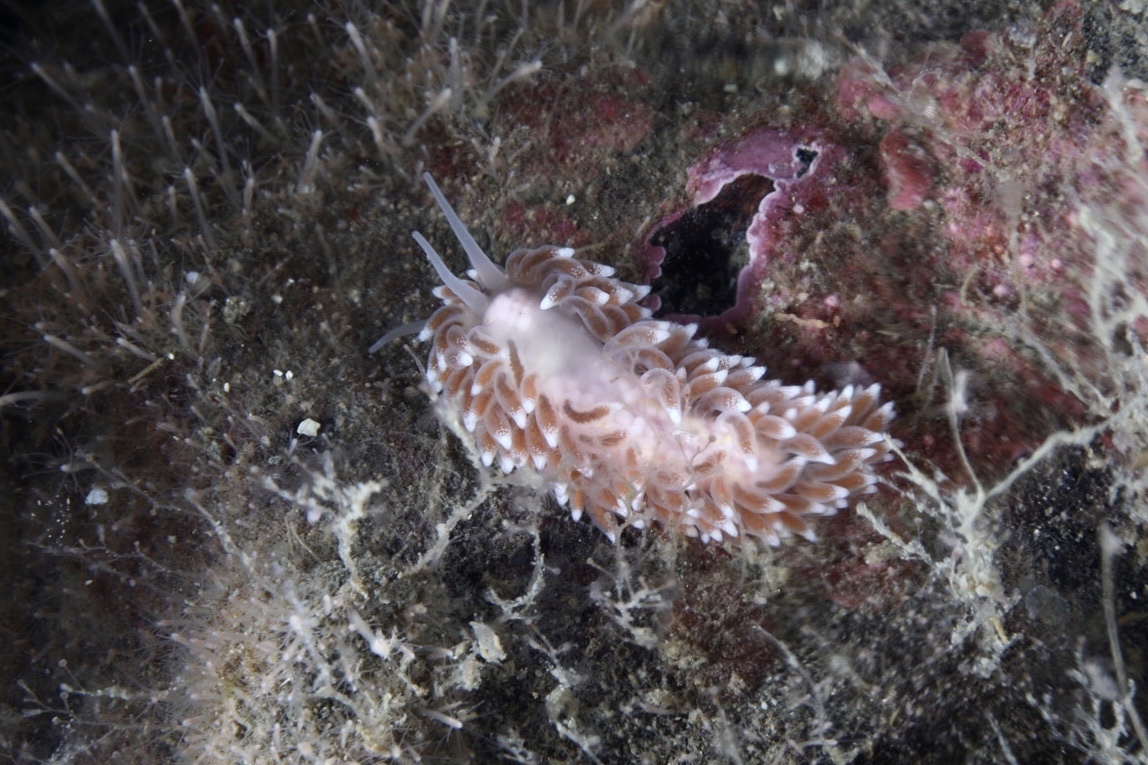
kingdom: Animalia
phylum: Mollusca
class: Gastropoda
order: Nudibranchia
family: Cuthonidae
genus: Cuthona
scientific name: Cuthona nana
